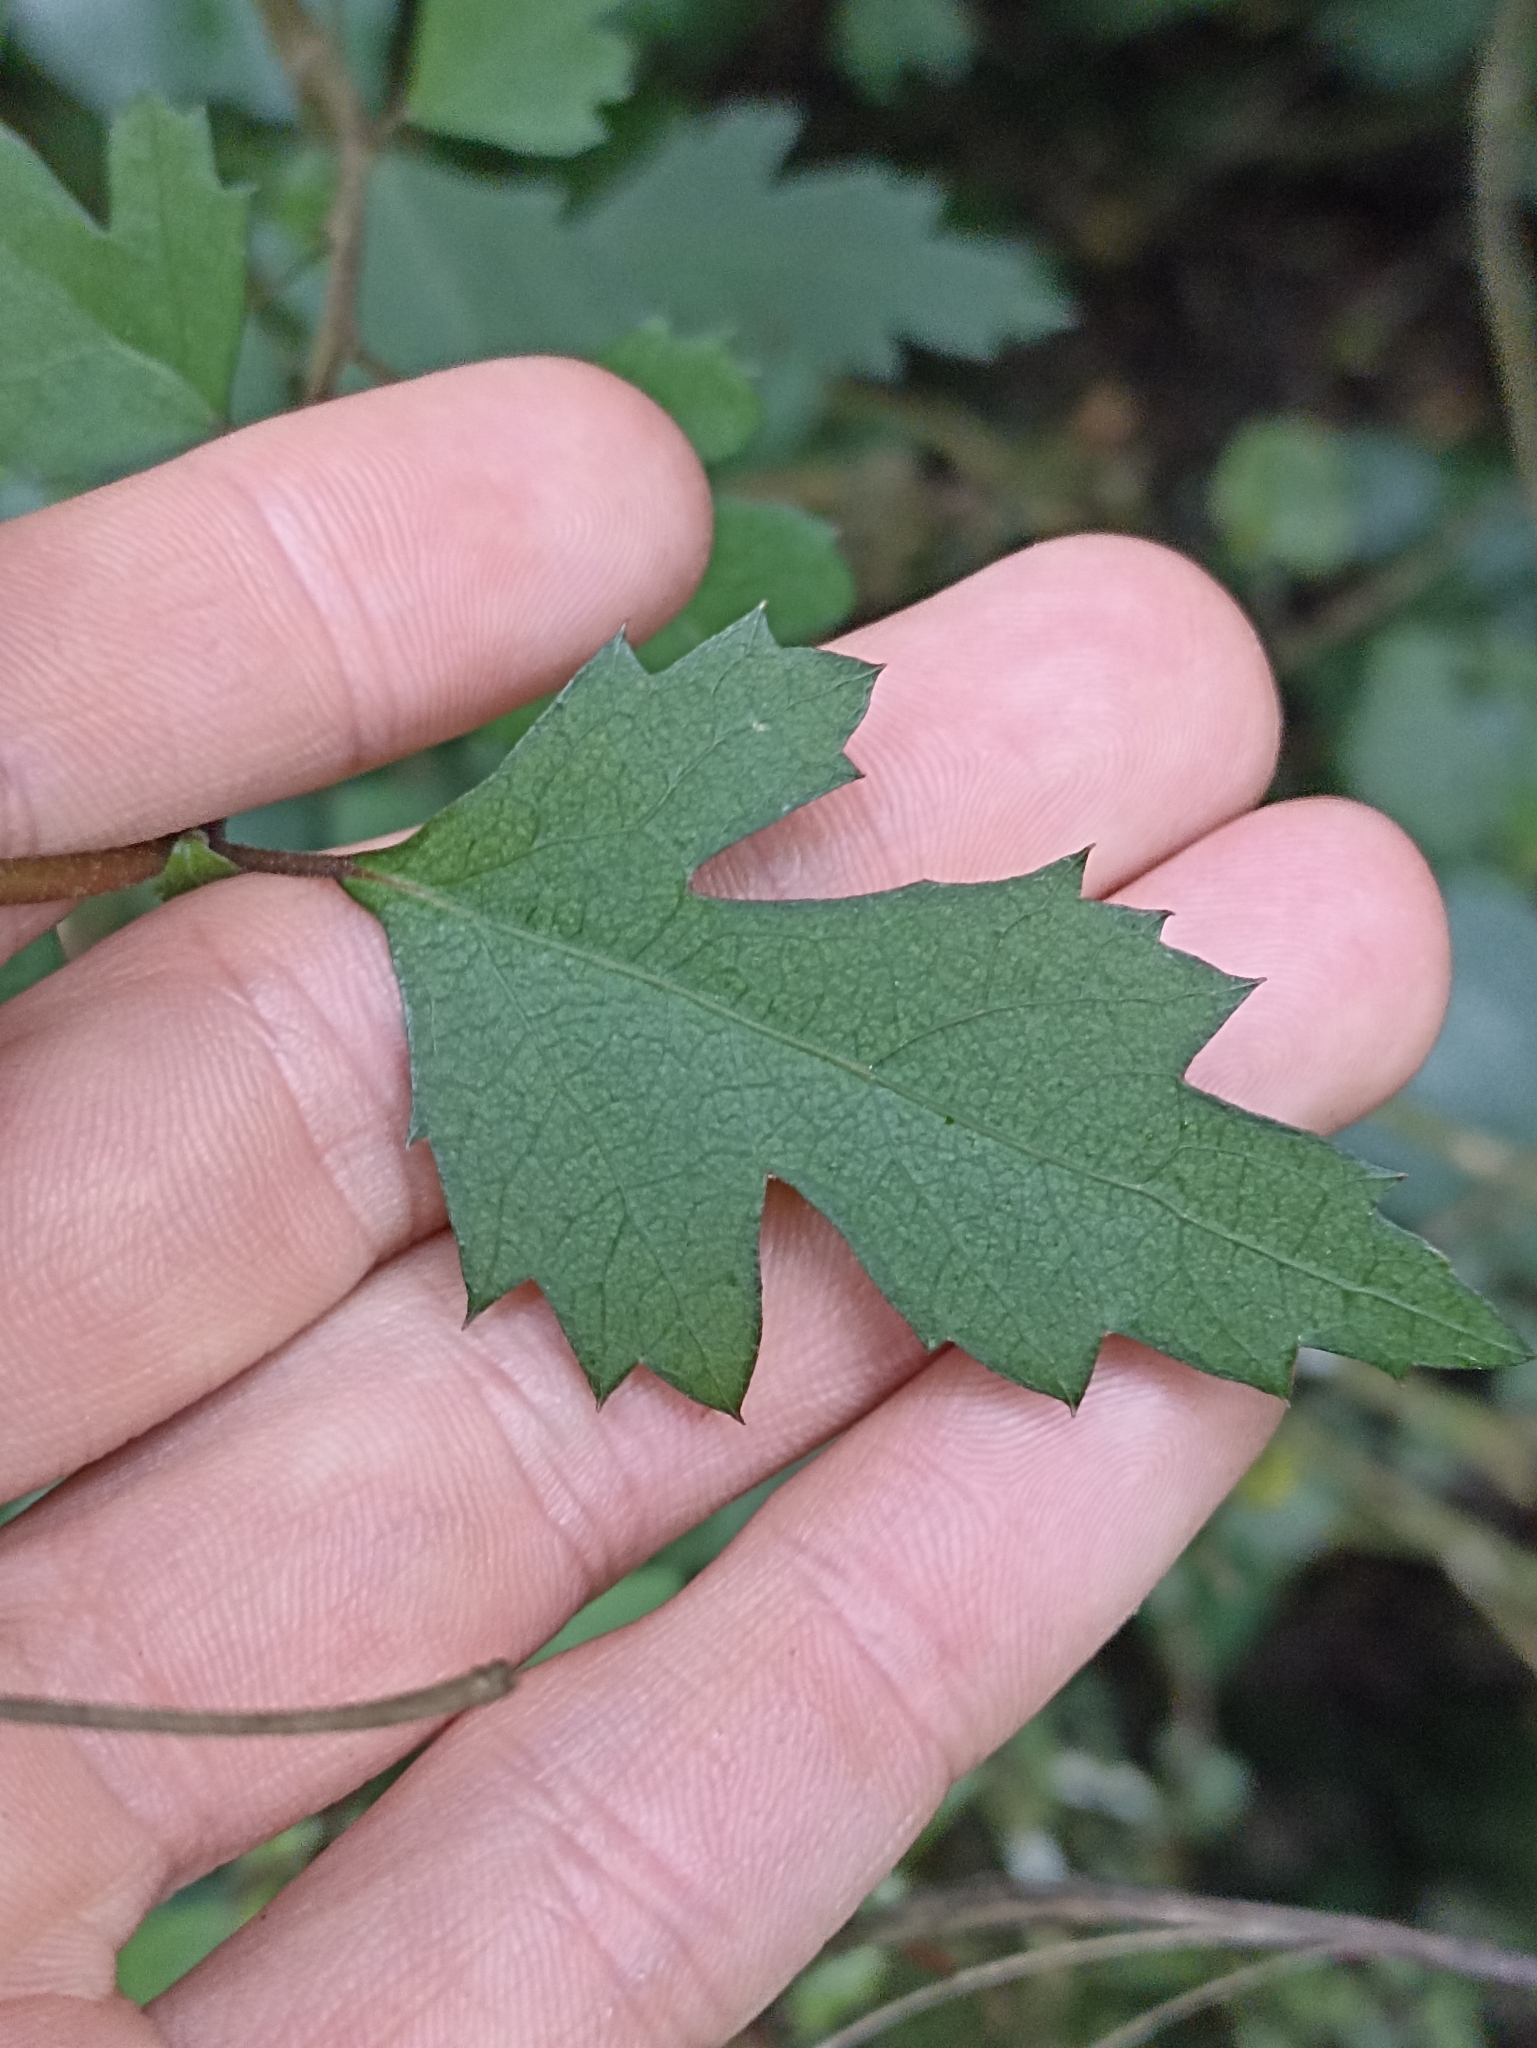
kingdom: Plantae
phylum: Tracheophyta
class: Magnoliopsida
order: Malvales
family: Malvaceae
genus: Hoheria
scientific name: Hoheria sexstylosa
